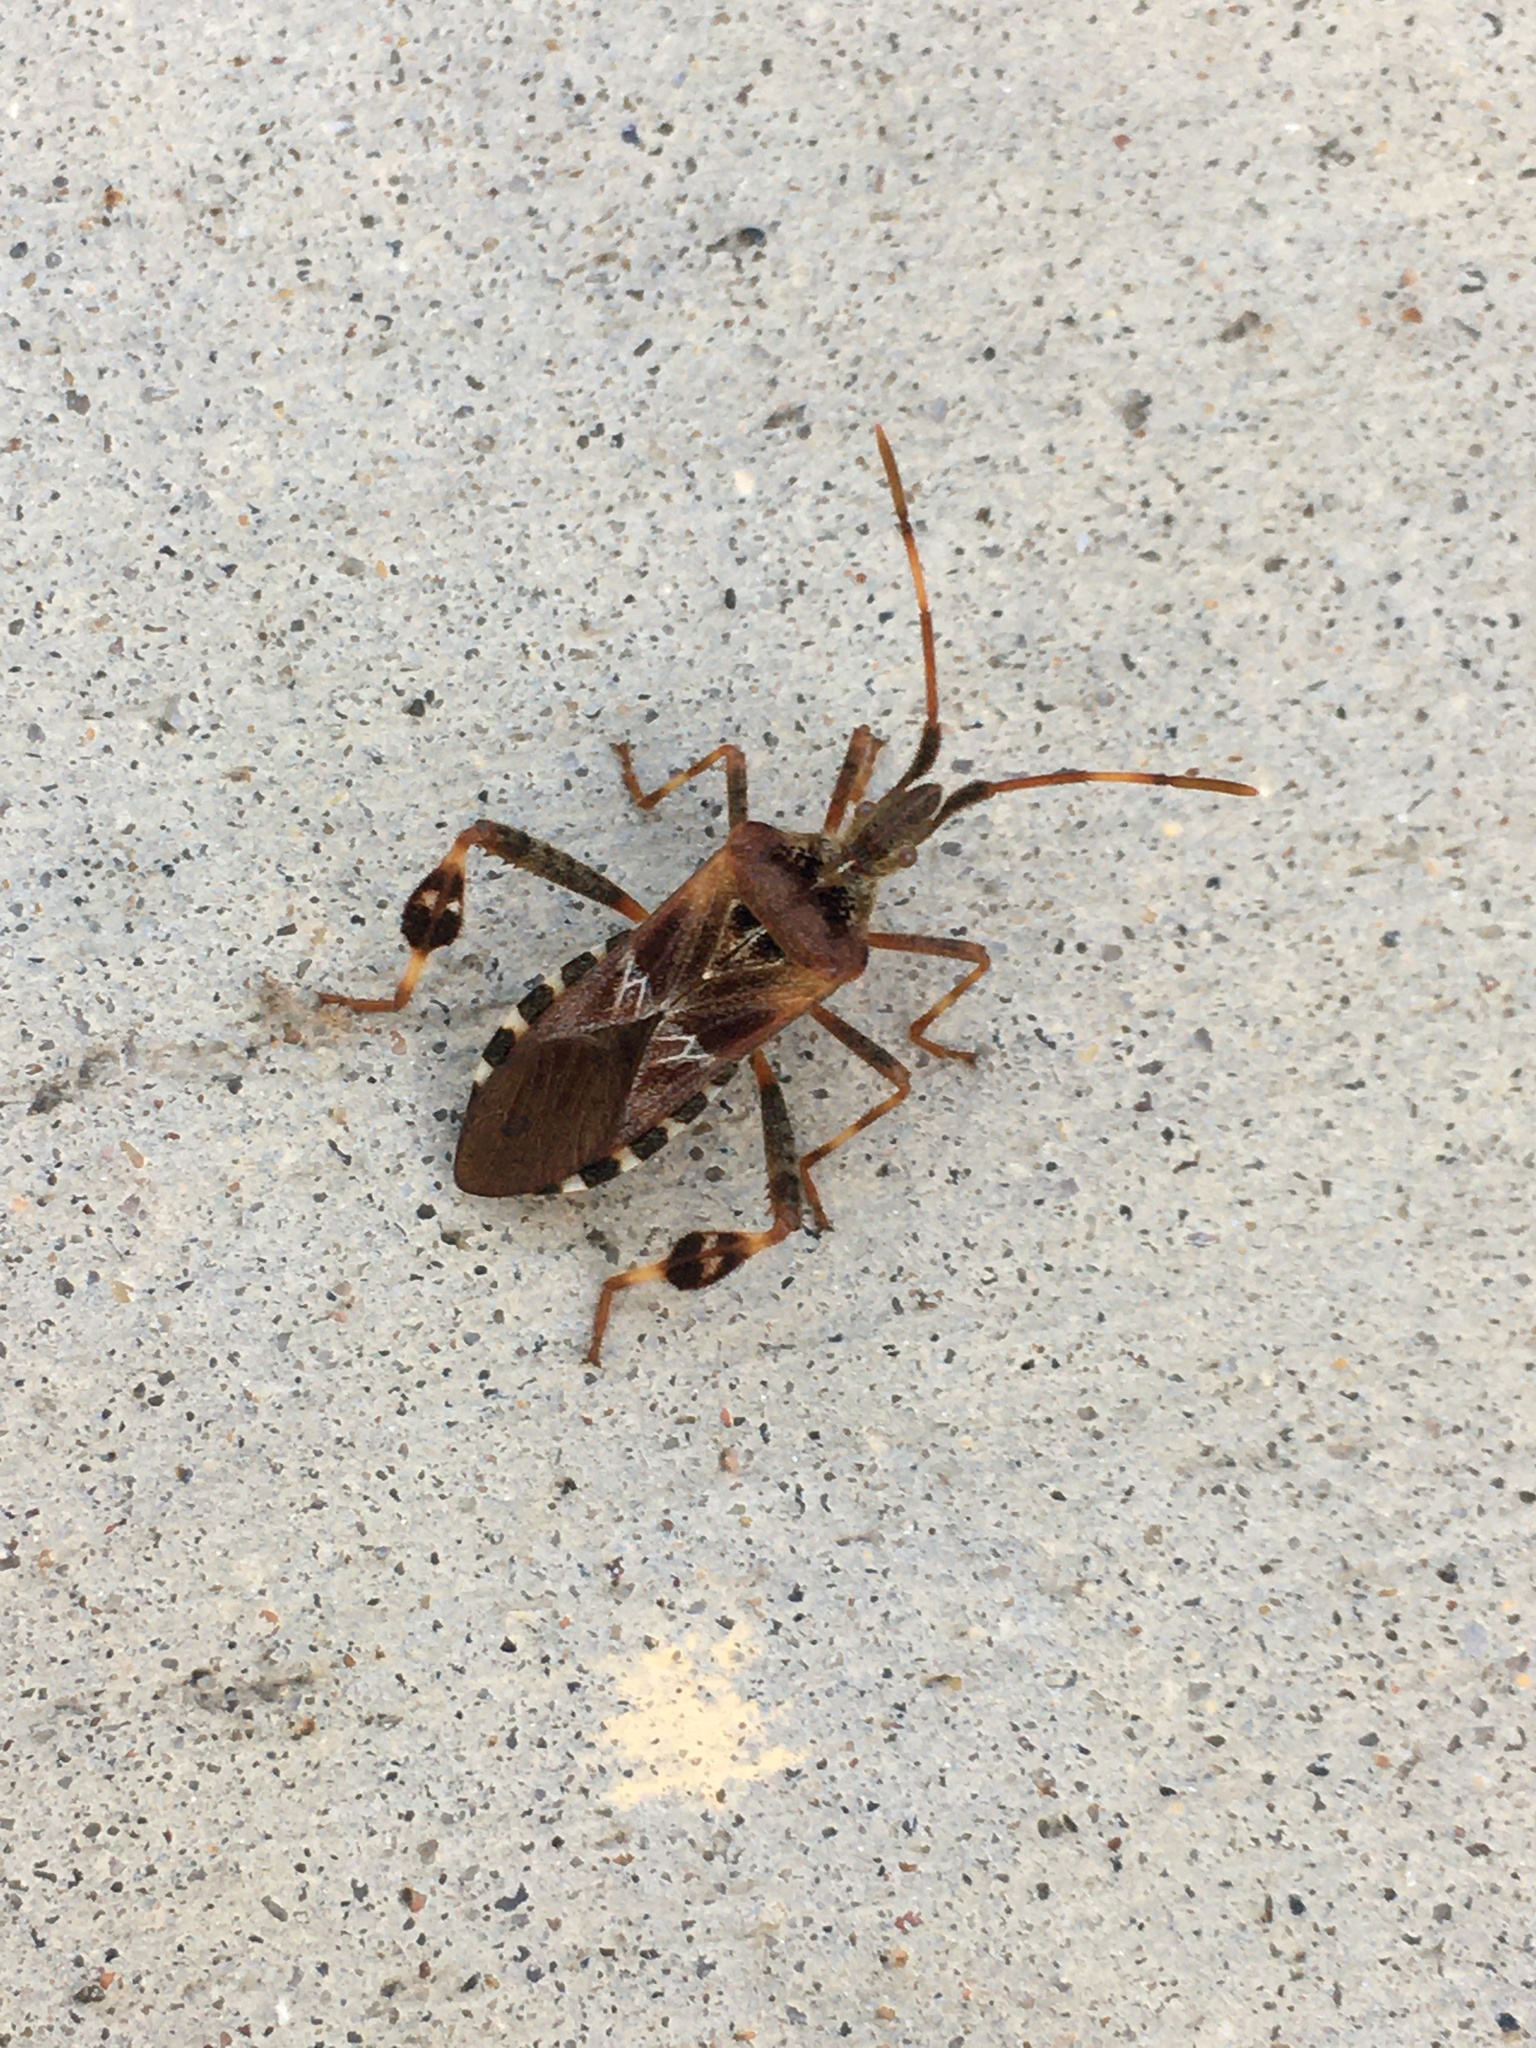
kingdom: Animalia
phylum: Arthropoda
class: Insecta
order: Hemiptera
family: Coreidae
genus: Leptoglossus
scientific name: Leptoglossus occidentalis
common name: Western conifer-seed bug
